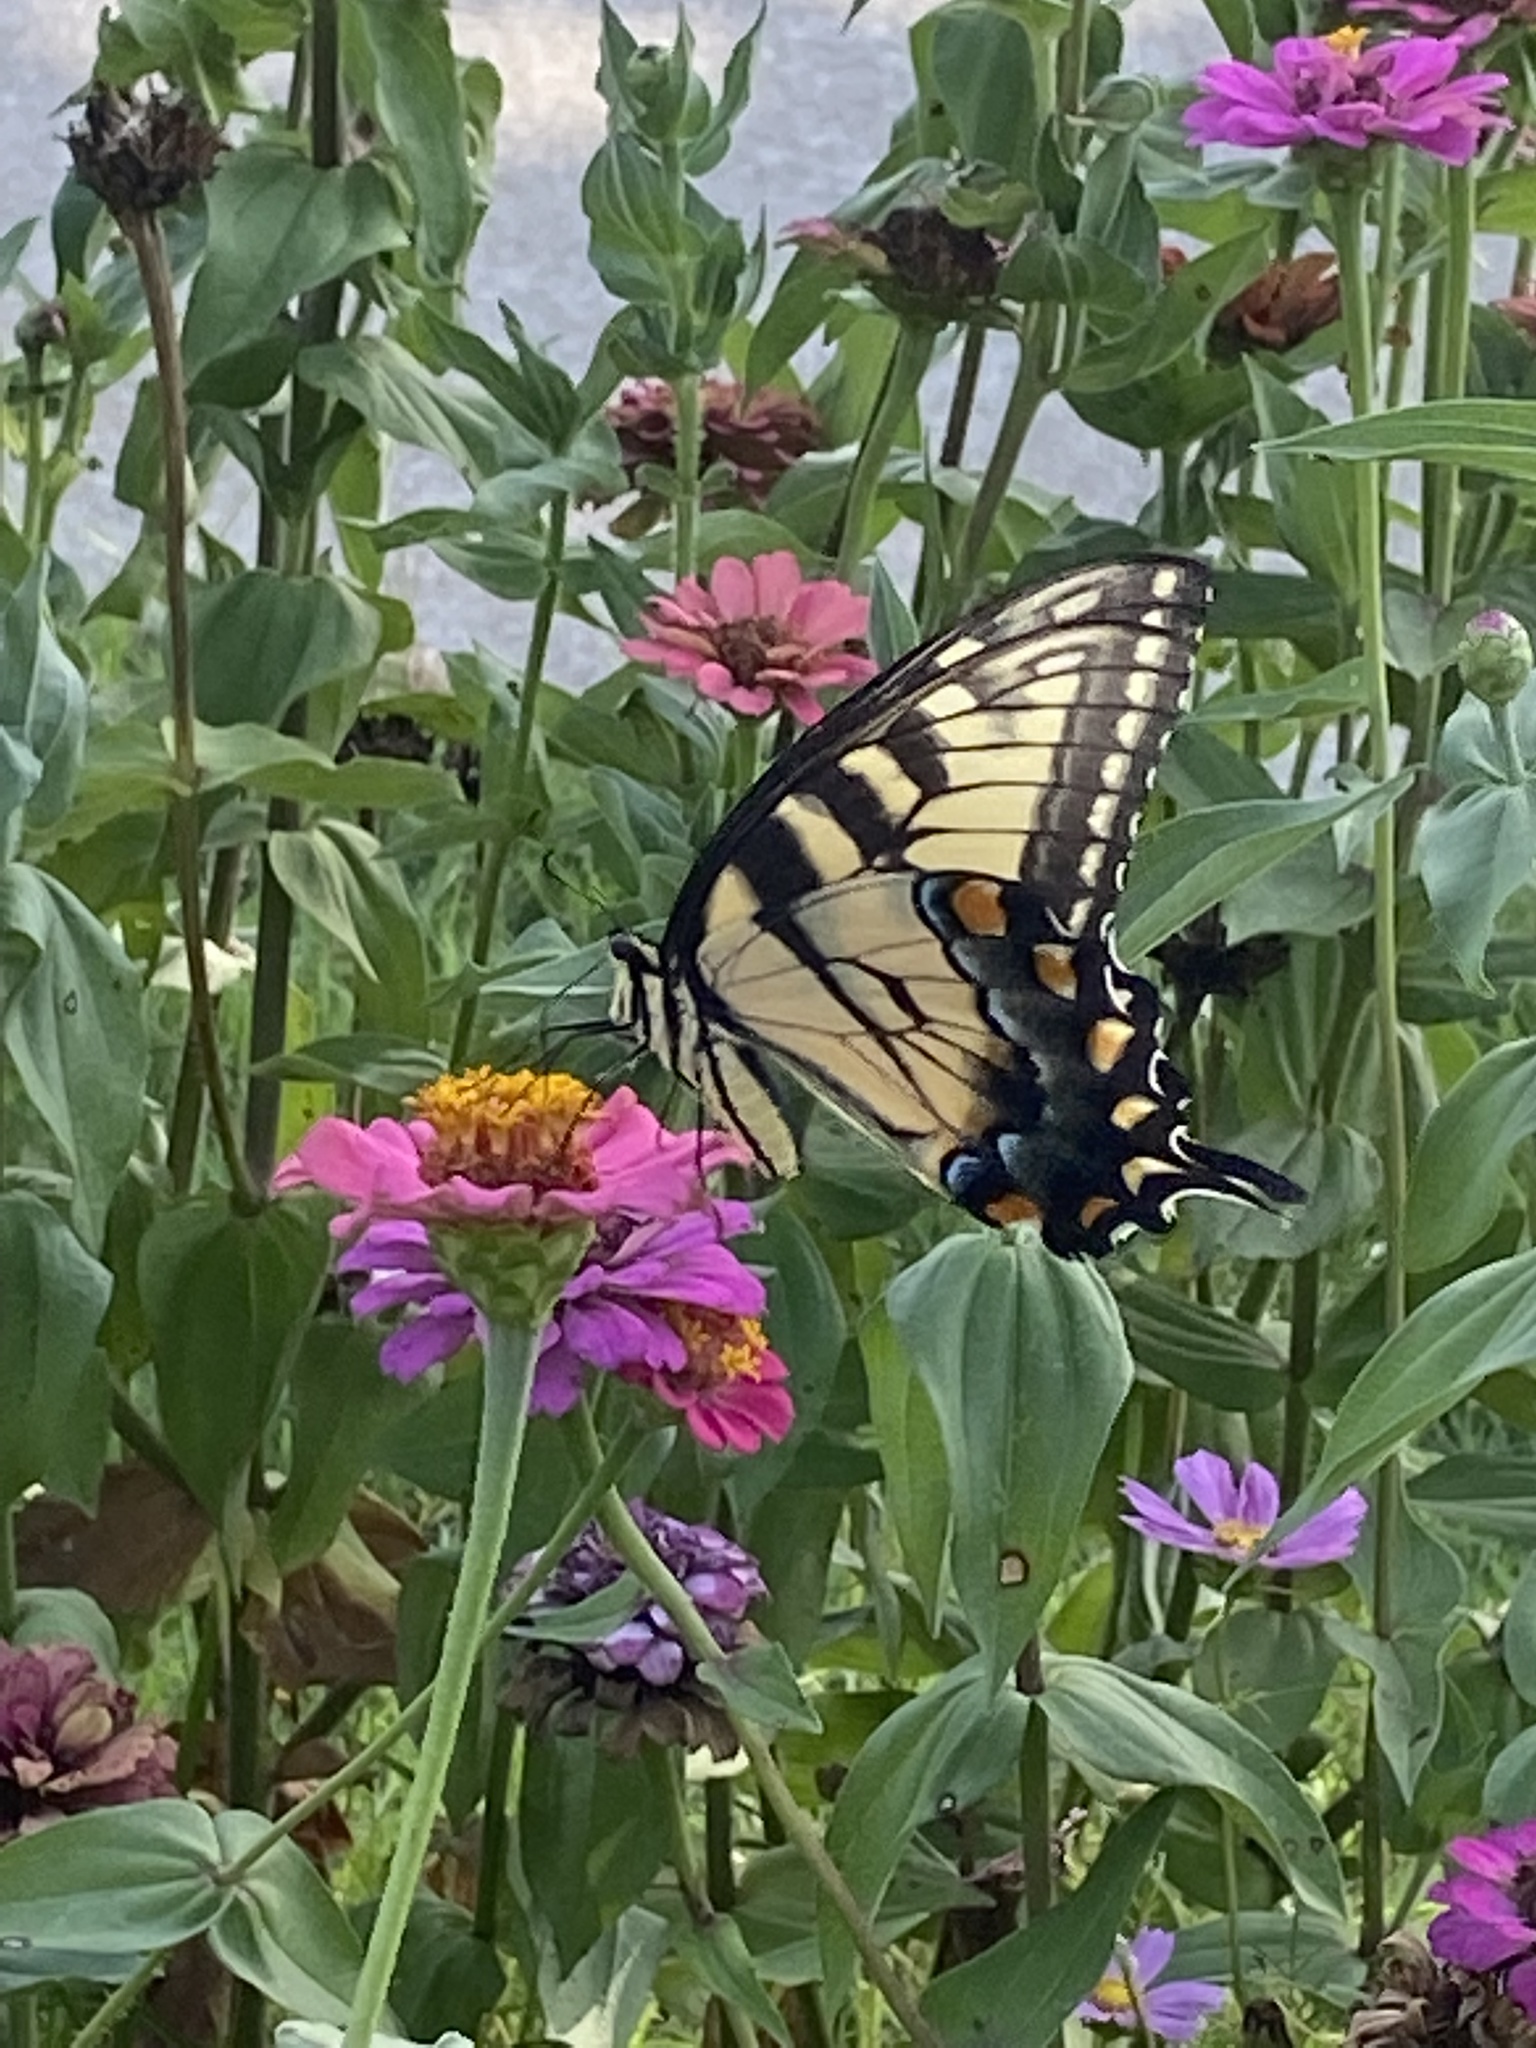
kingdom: Animalia
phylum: Arthropoda
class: Insecta
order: Lepidoptera
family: Papilionidae
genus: Papilio
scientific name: Papilio glaucus
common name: Tiger swallowtail
